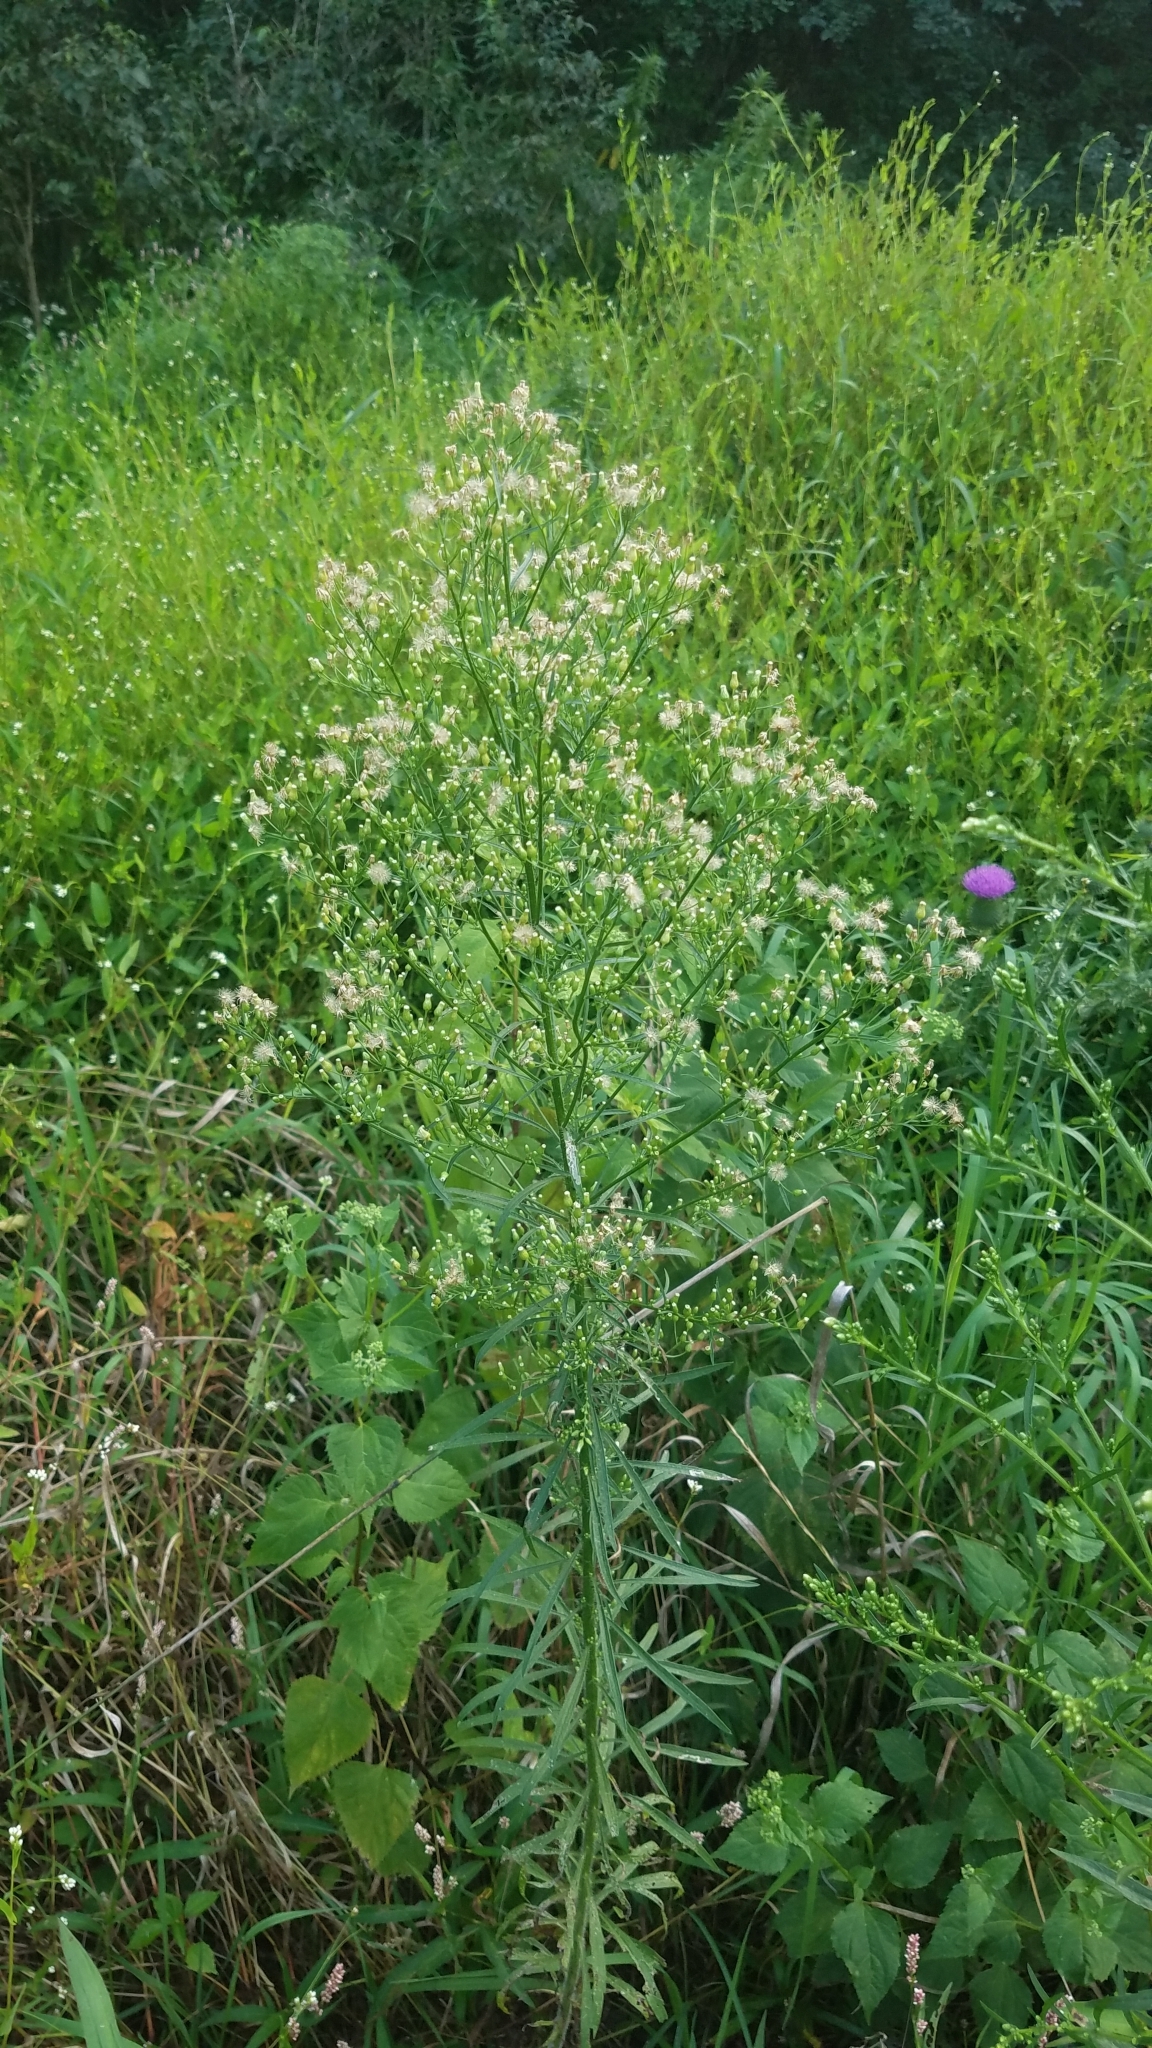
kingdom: Plantae
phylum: Tracheophyta
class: Magnoliopsida
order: Asterales
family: Asteraceae
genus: Erigeron
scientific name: Erigeron canadensis
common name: Canadian fleabane
